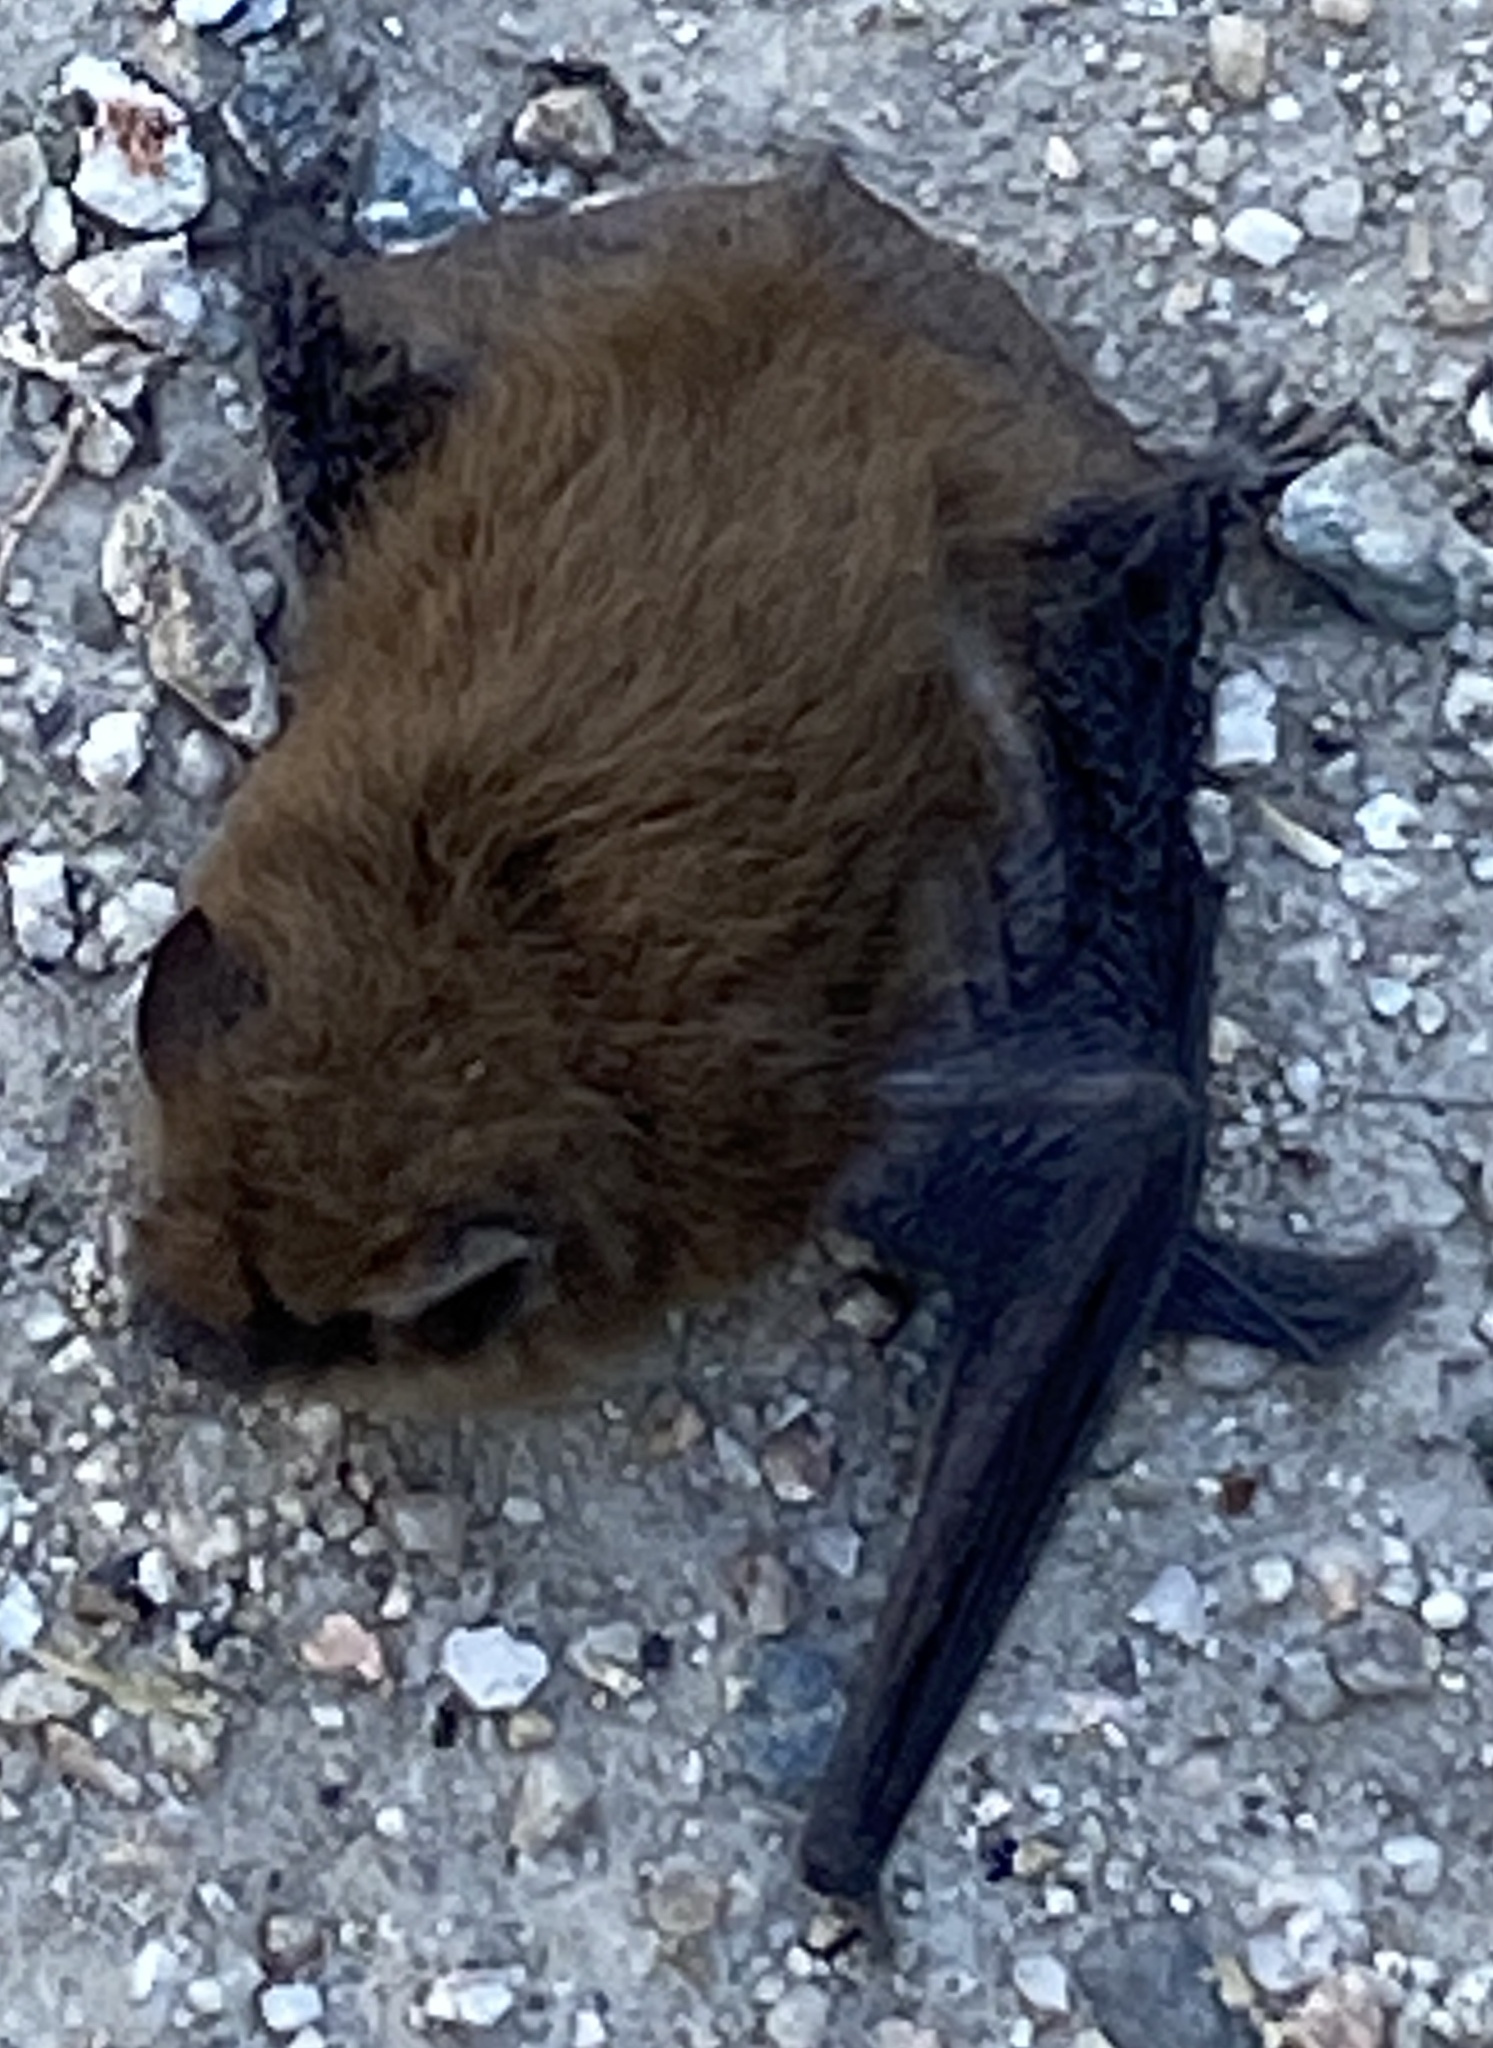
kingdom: Animalia
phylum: Chordata
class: Mammalia
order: Chiroptera
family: Vespertilionidae
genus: Myotis
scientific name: Myotis
